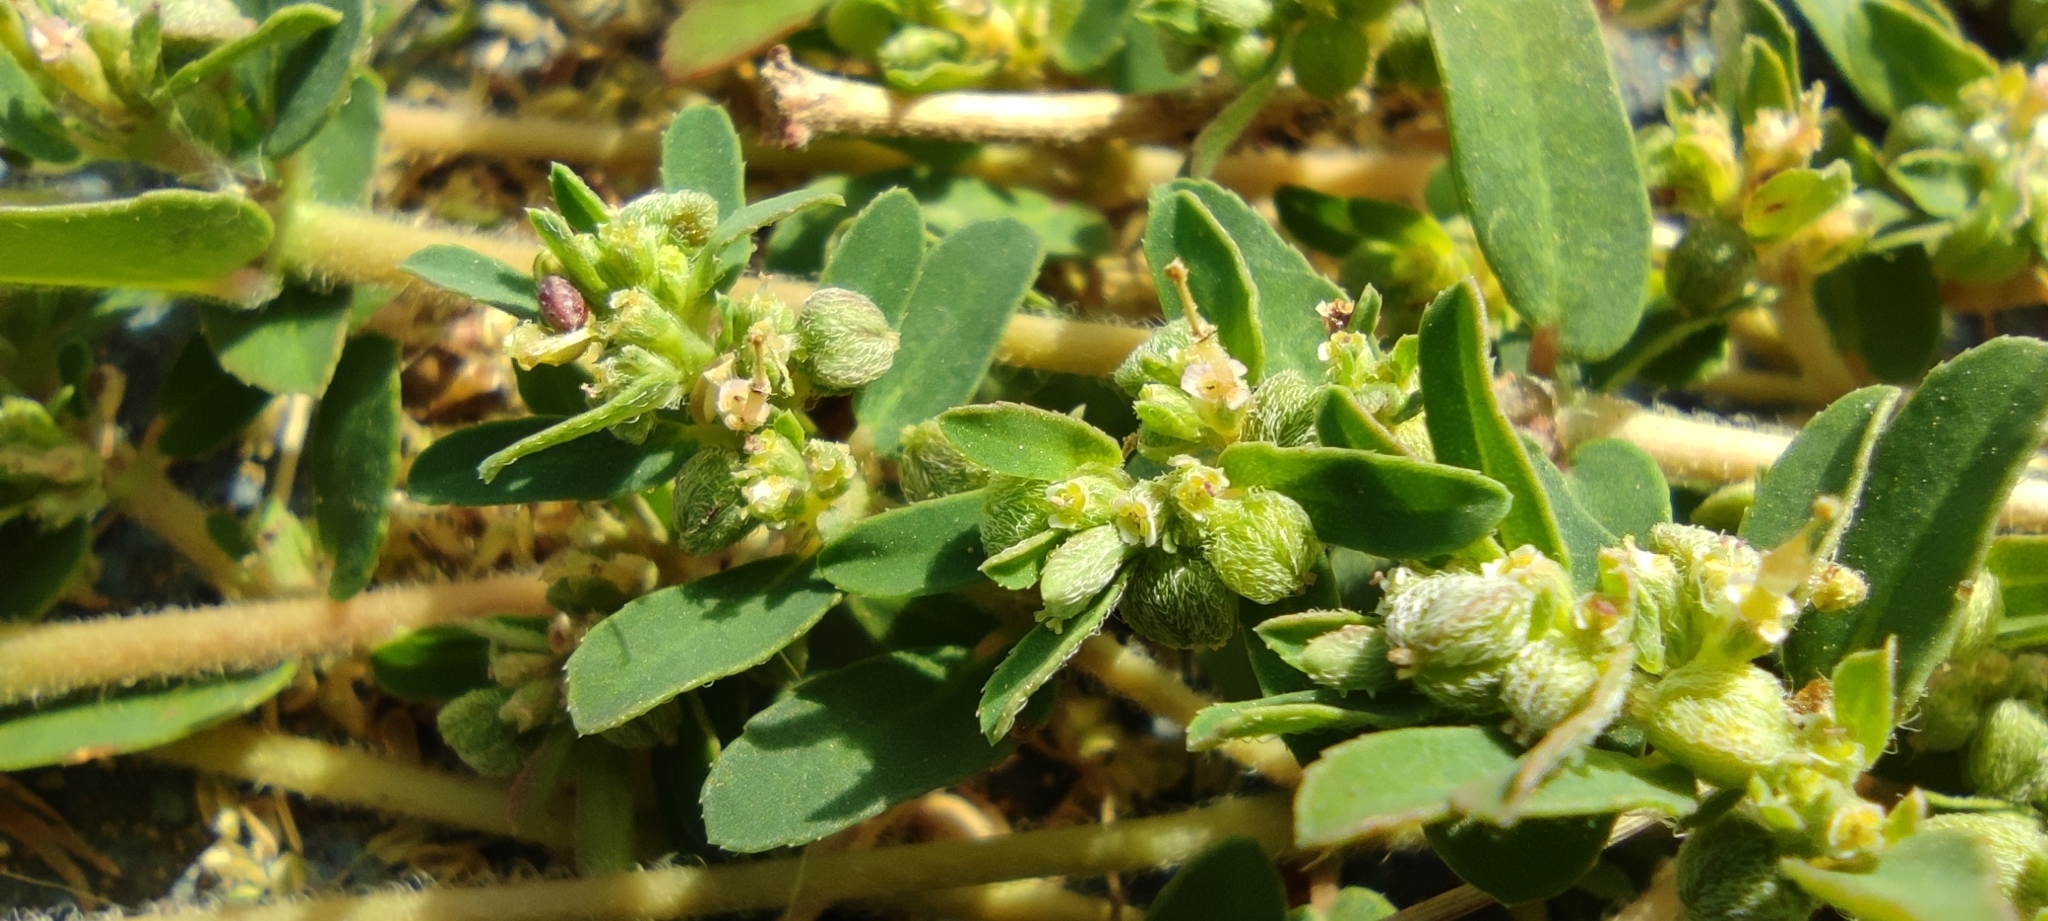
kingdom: Plantae
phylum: Tracheophyta
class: Magnoliopsida
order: Malpighiales
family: Euphorbiaceae
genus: Euphorbia
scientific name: Euphorbia maculata
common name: Spotted spurge
